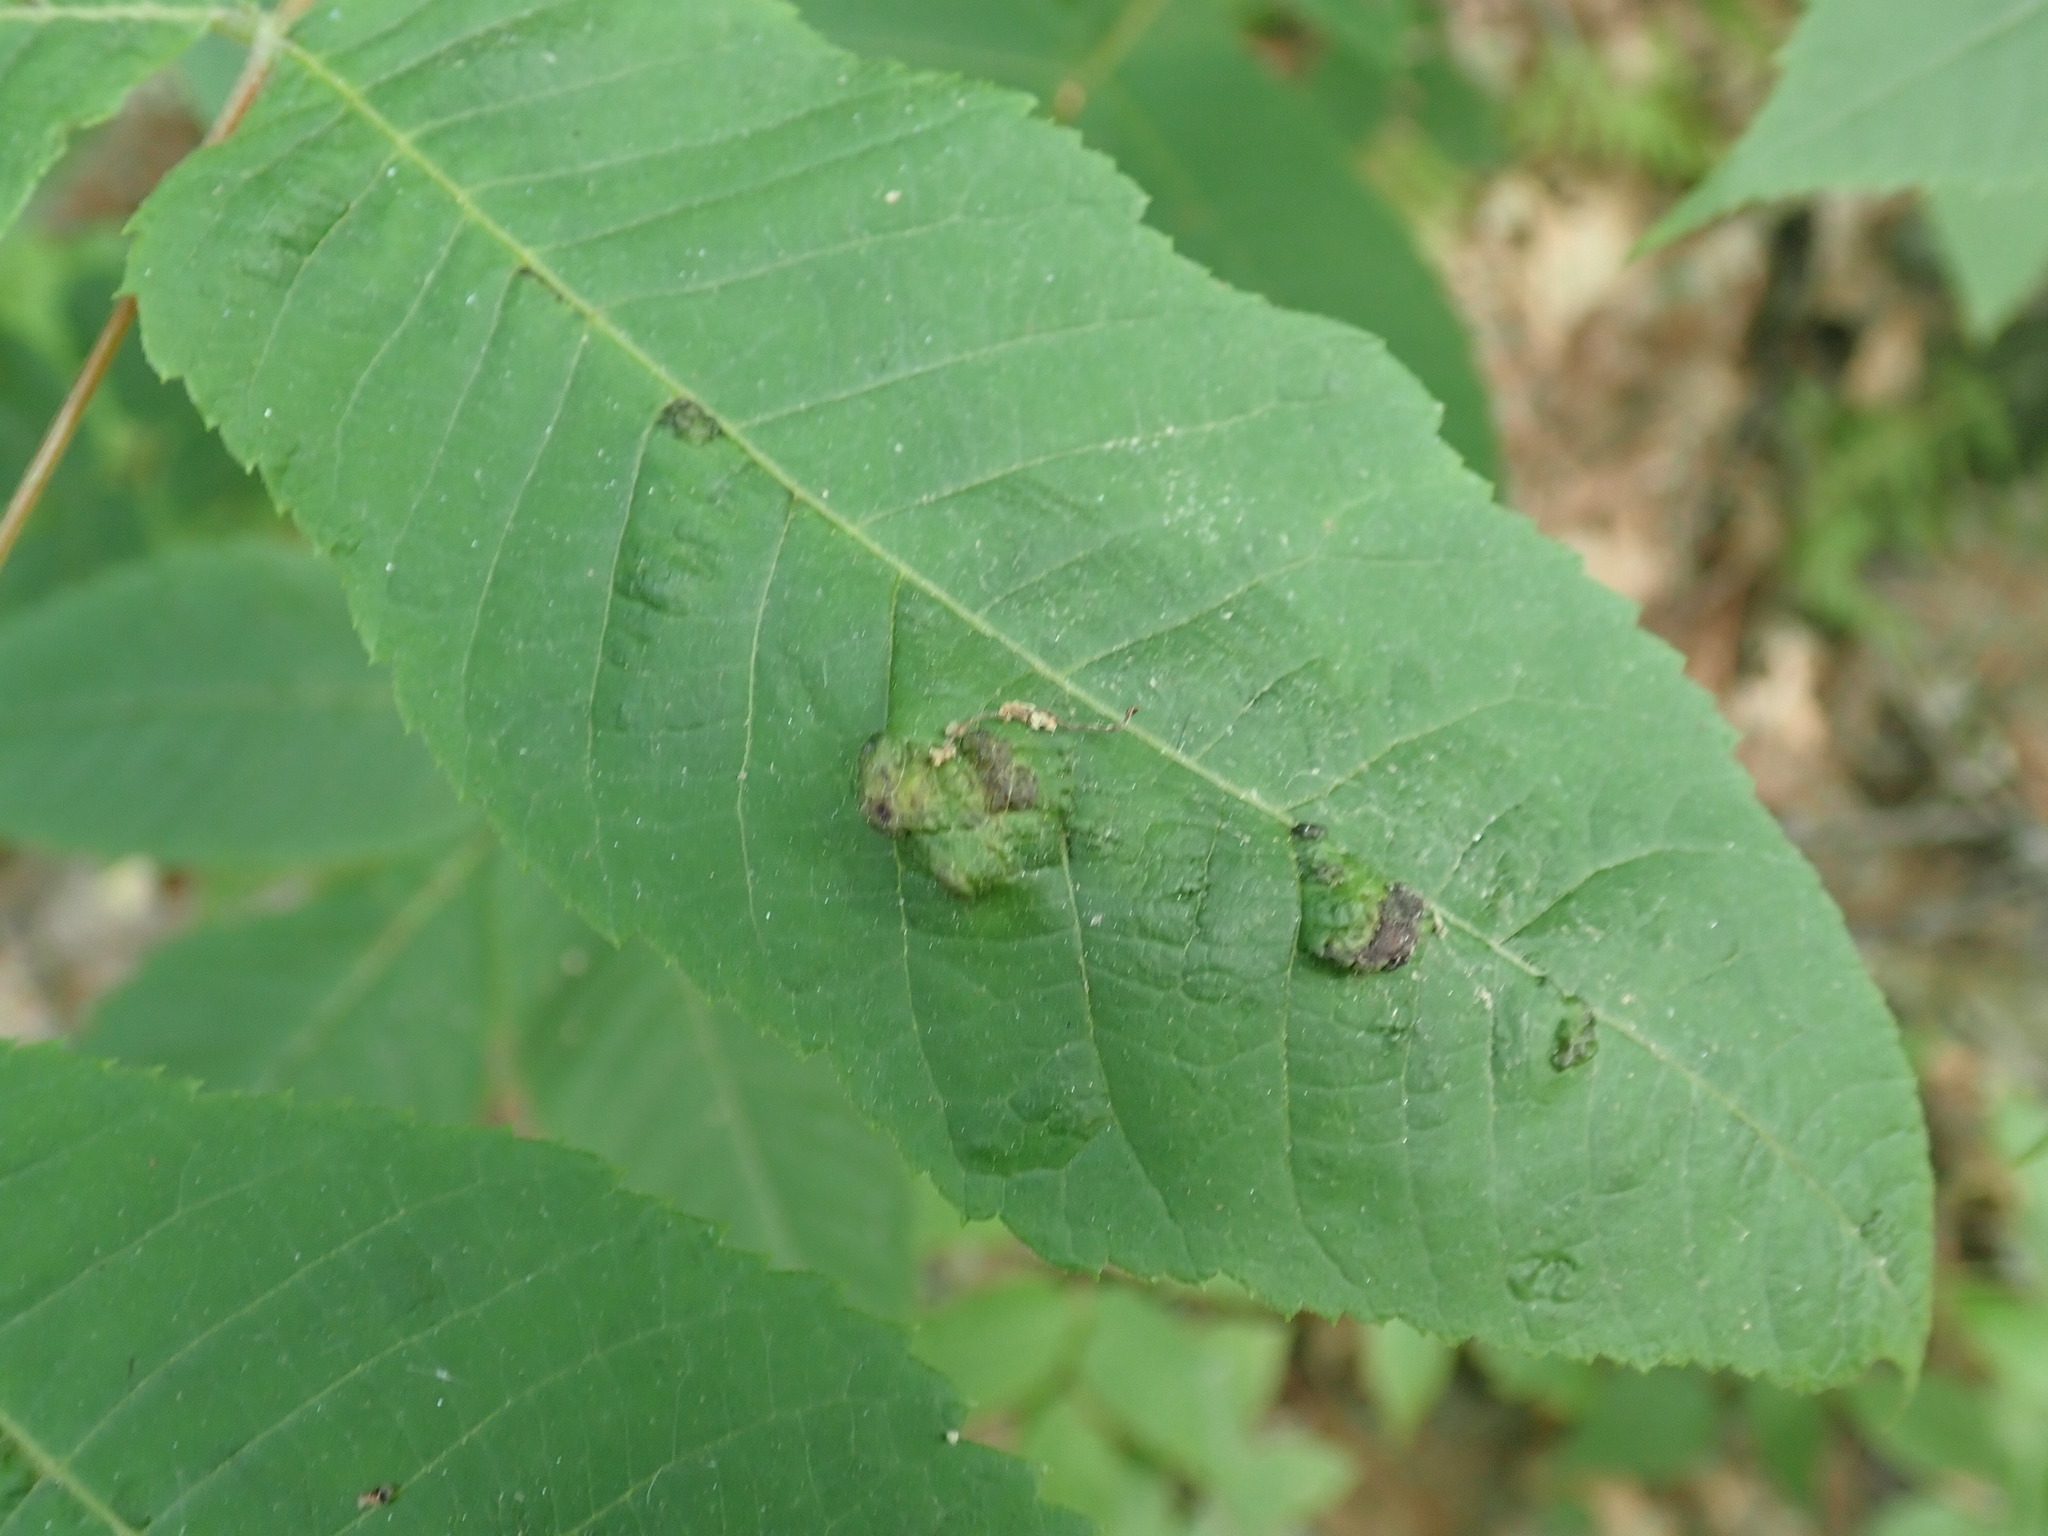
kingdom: Animalia
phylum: Arthropoda
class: Arachnida
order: Trombidiformes
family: Eriophyidae
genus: Aceria
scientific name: Aceria
